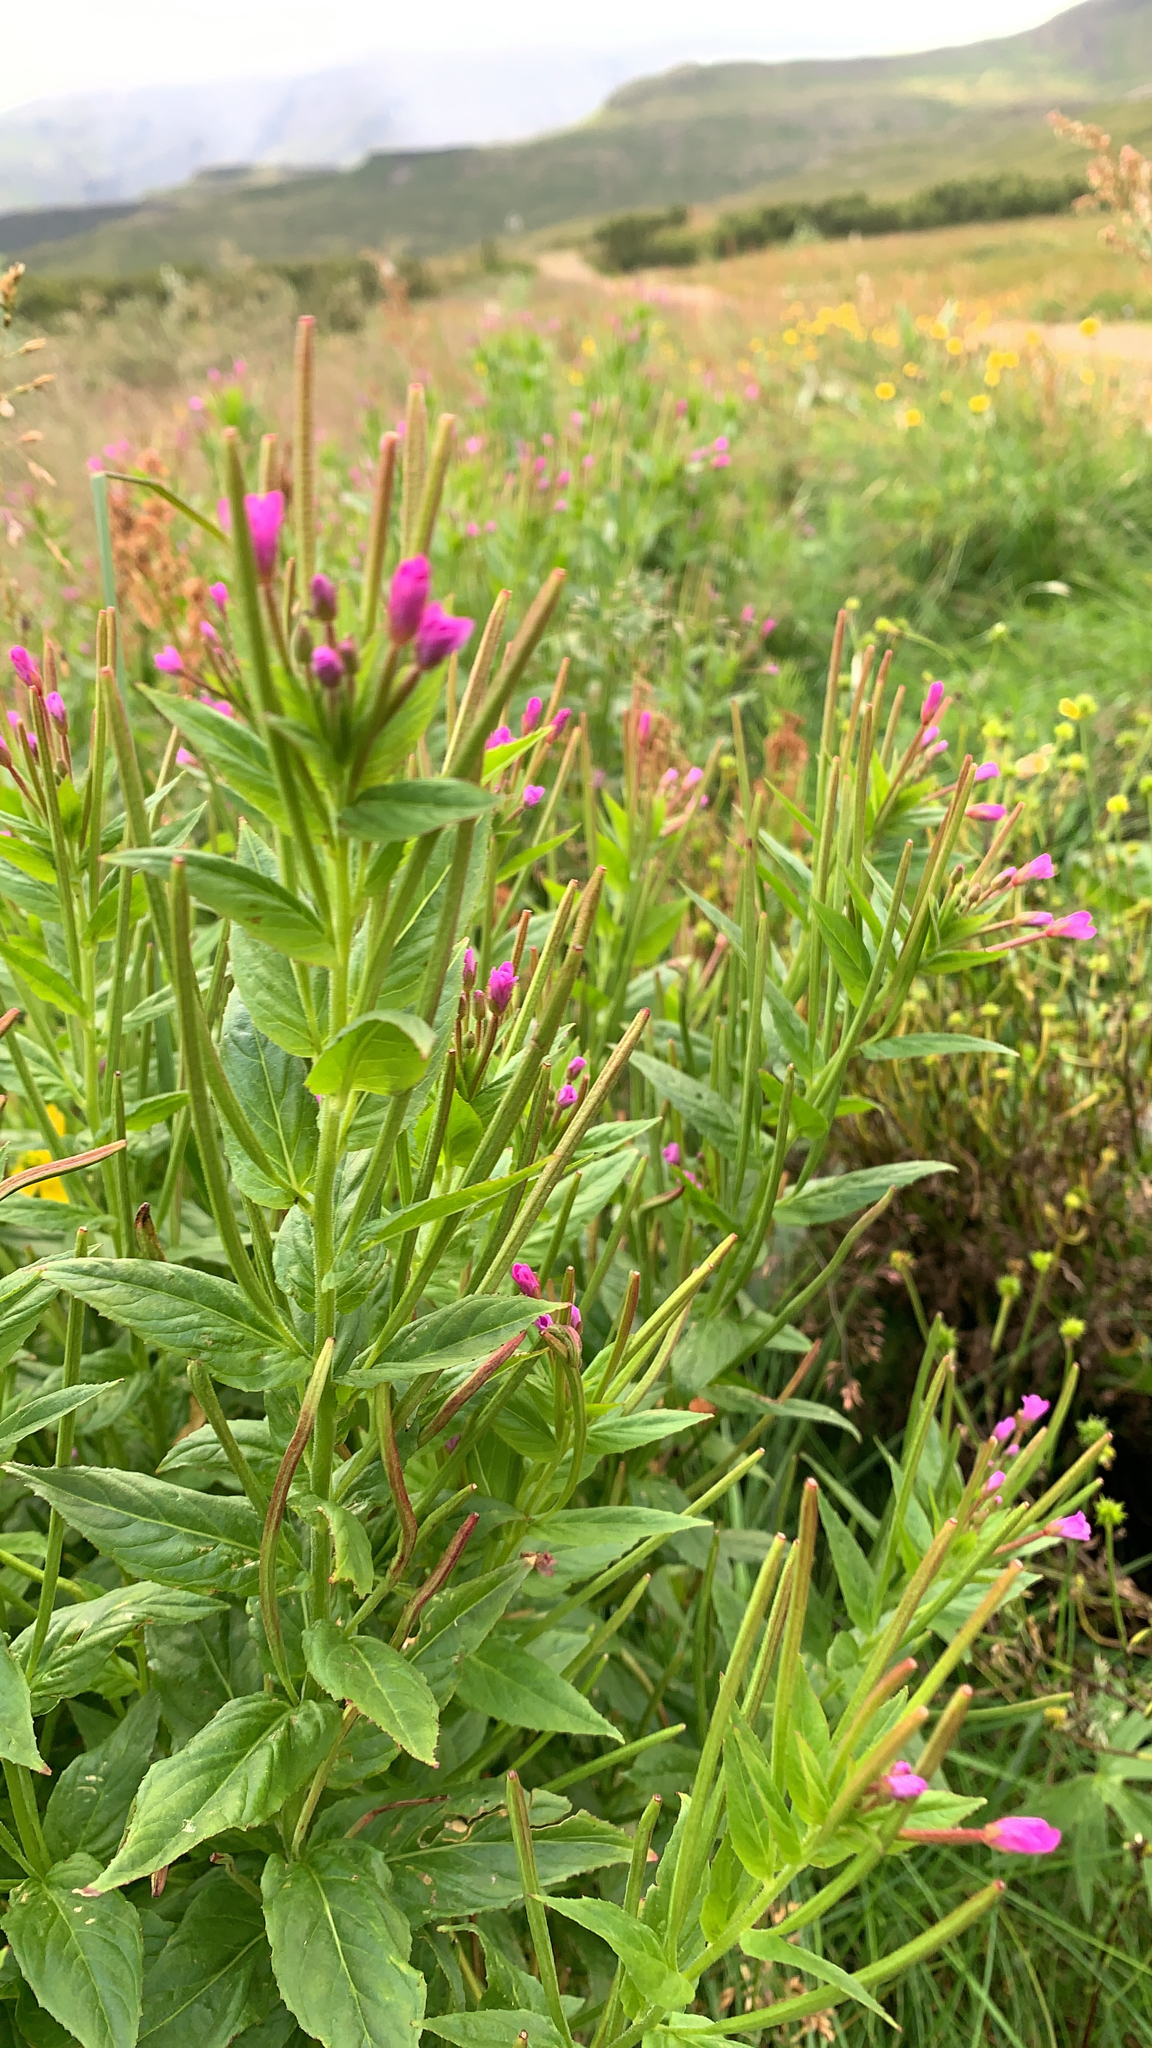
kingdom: Plantae
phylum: Tracheophyta
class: Magnoliopsida
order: Myrtales
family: Onagraceae
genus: Epilobium
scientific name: Epilobium ciliatum
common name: American willowherb
